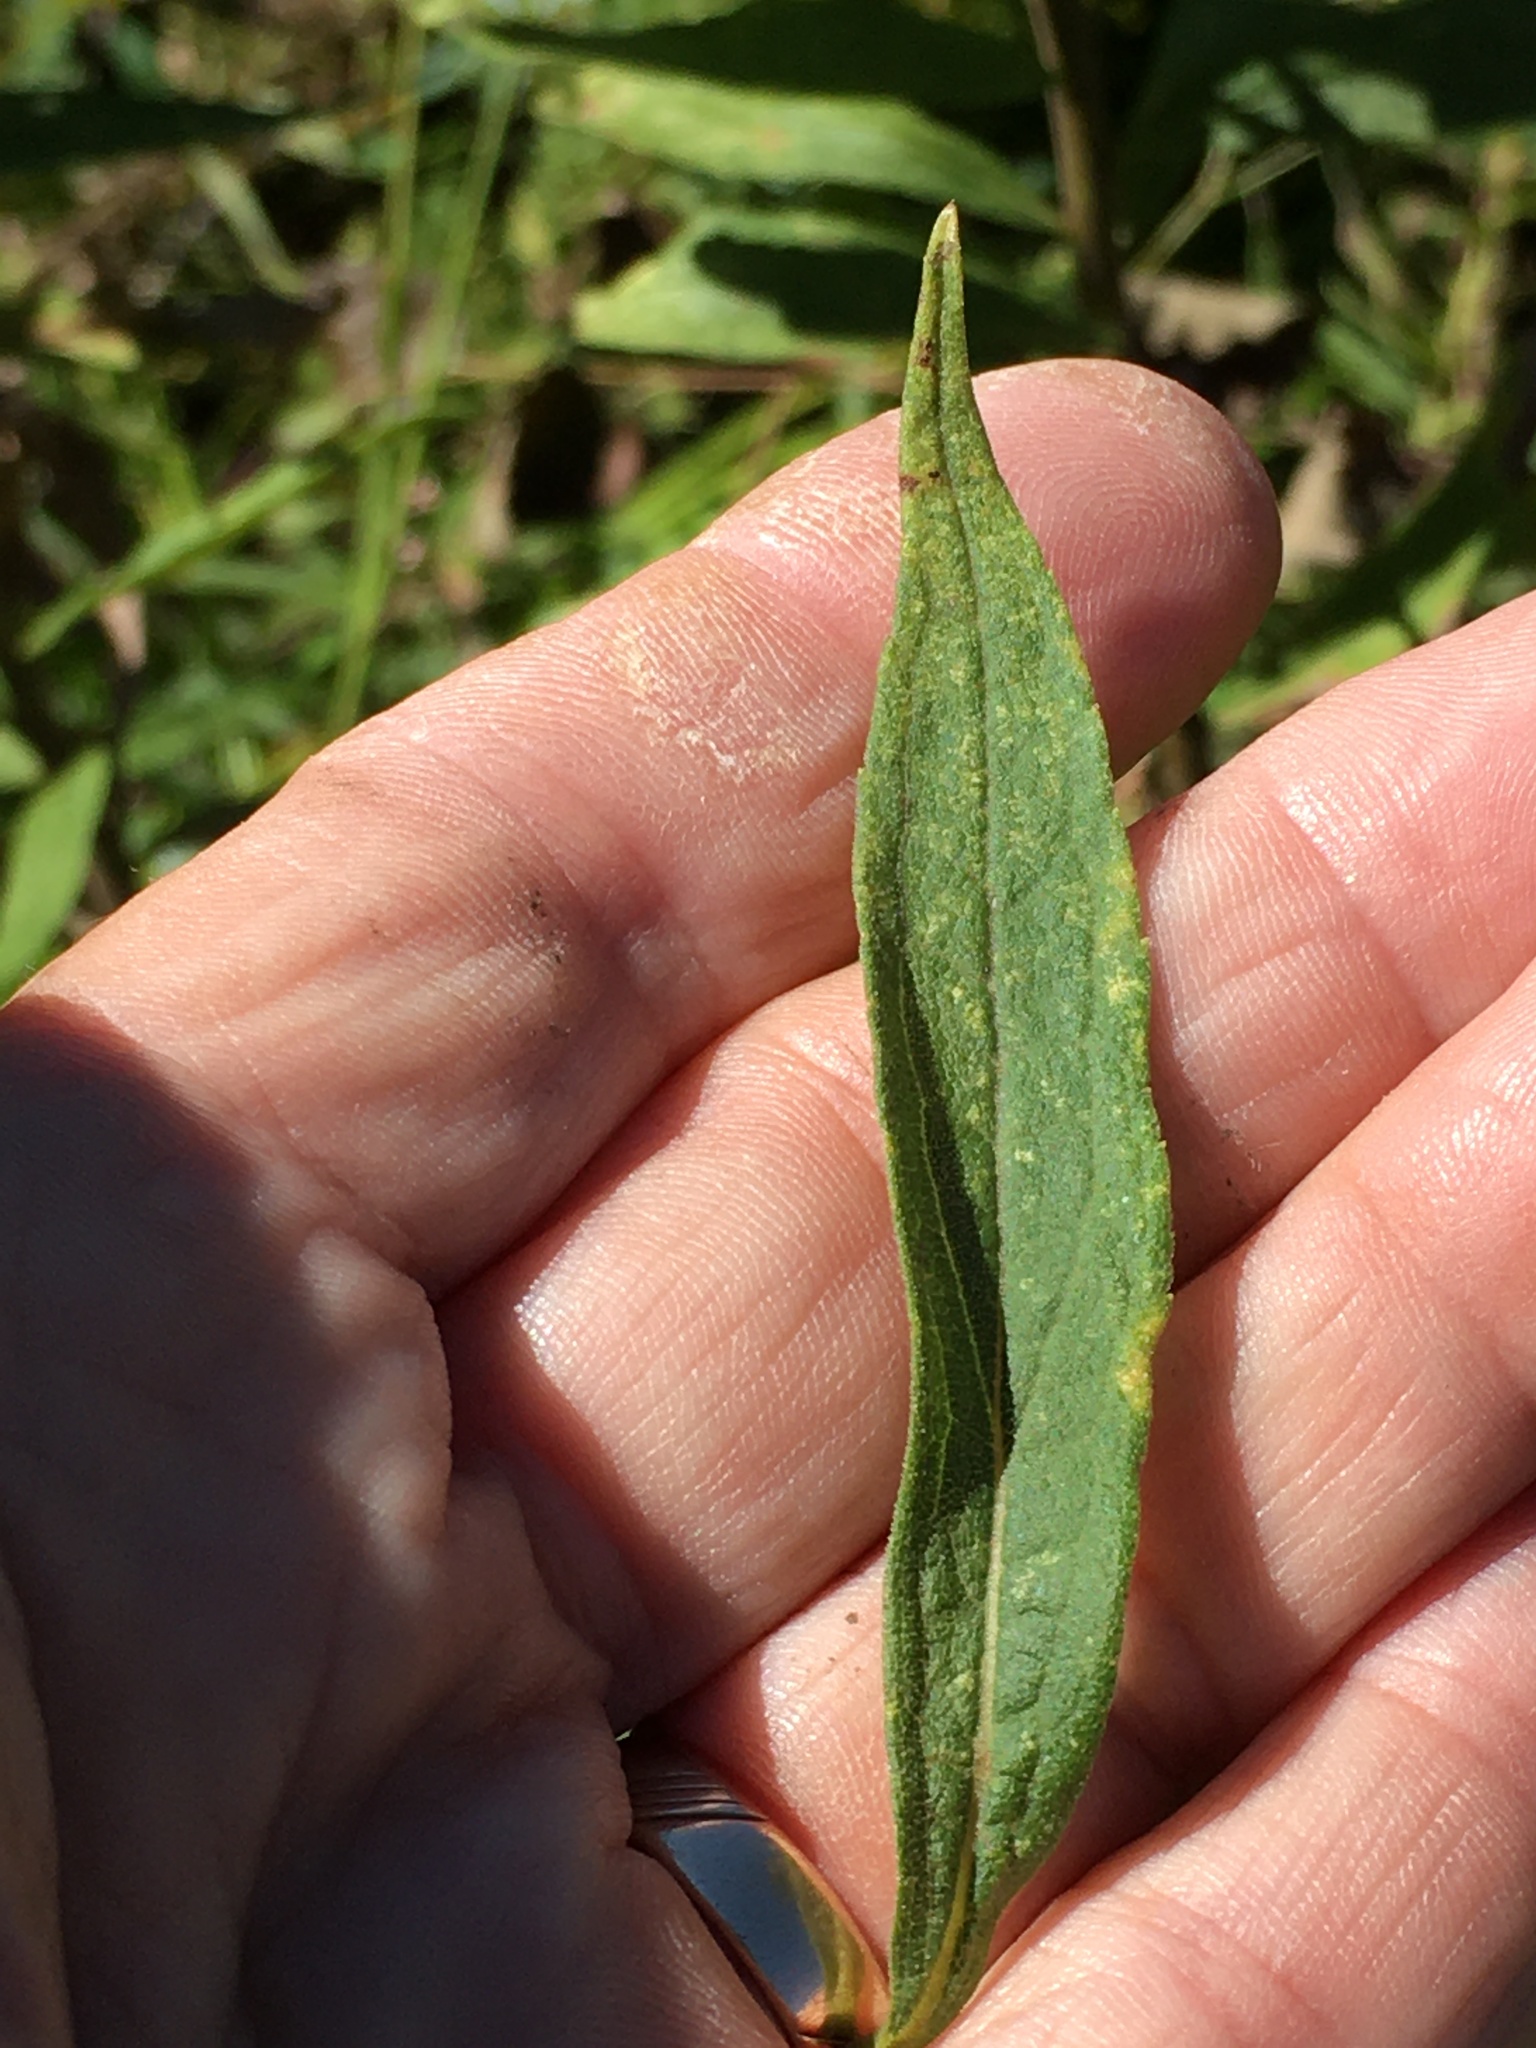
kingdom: Plantae
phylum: Tracheophyta
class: Magnoliopsida
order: Asterales
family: Asteraceae
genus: Solidago
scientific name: Solidago altissima
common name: Late goldenrod
